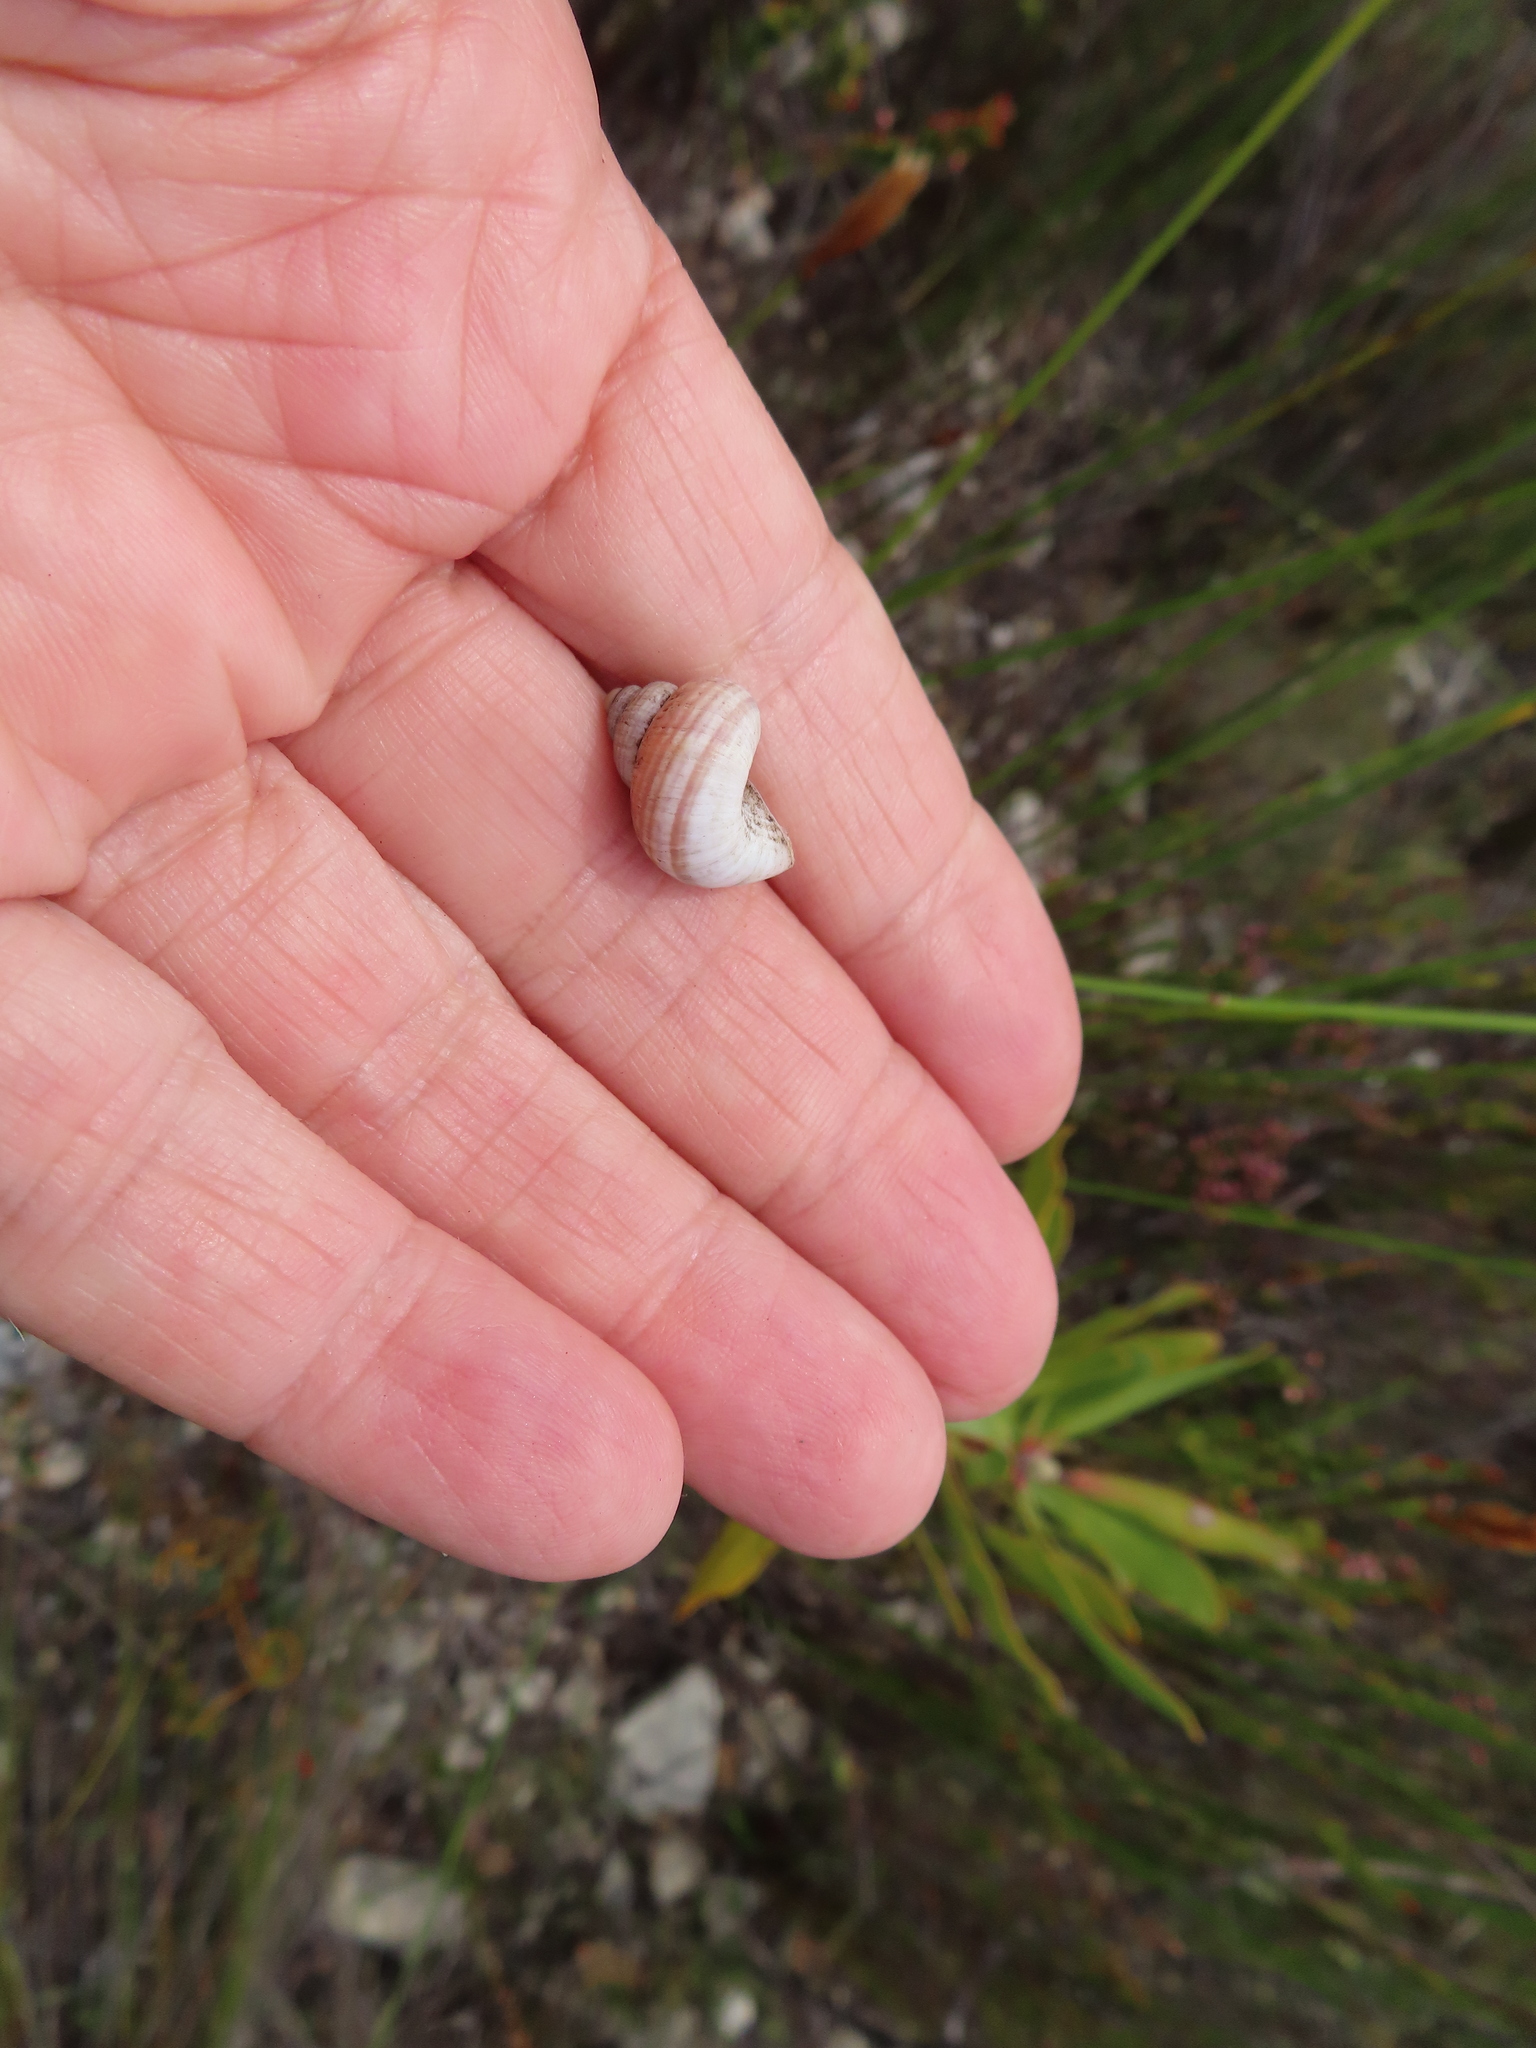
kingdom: Animalia
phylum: Mollusca
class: Gastropoda
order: Littorinimorpha
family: Pomatiidae
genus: Tropidophora
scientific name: Tropidophora ligata
